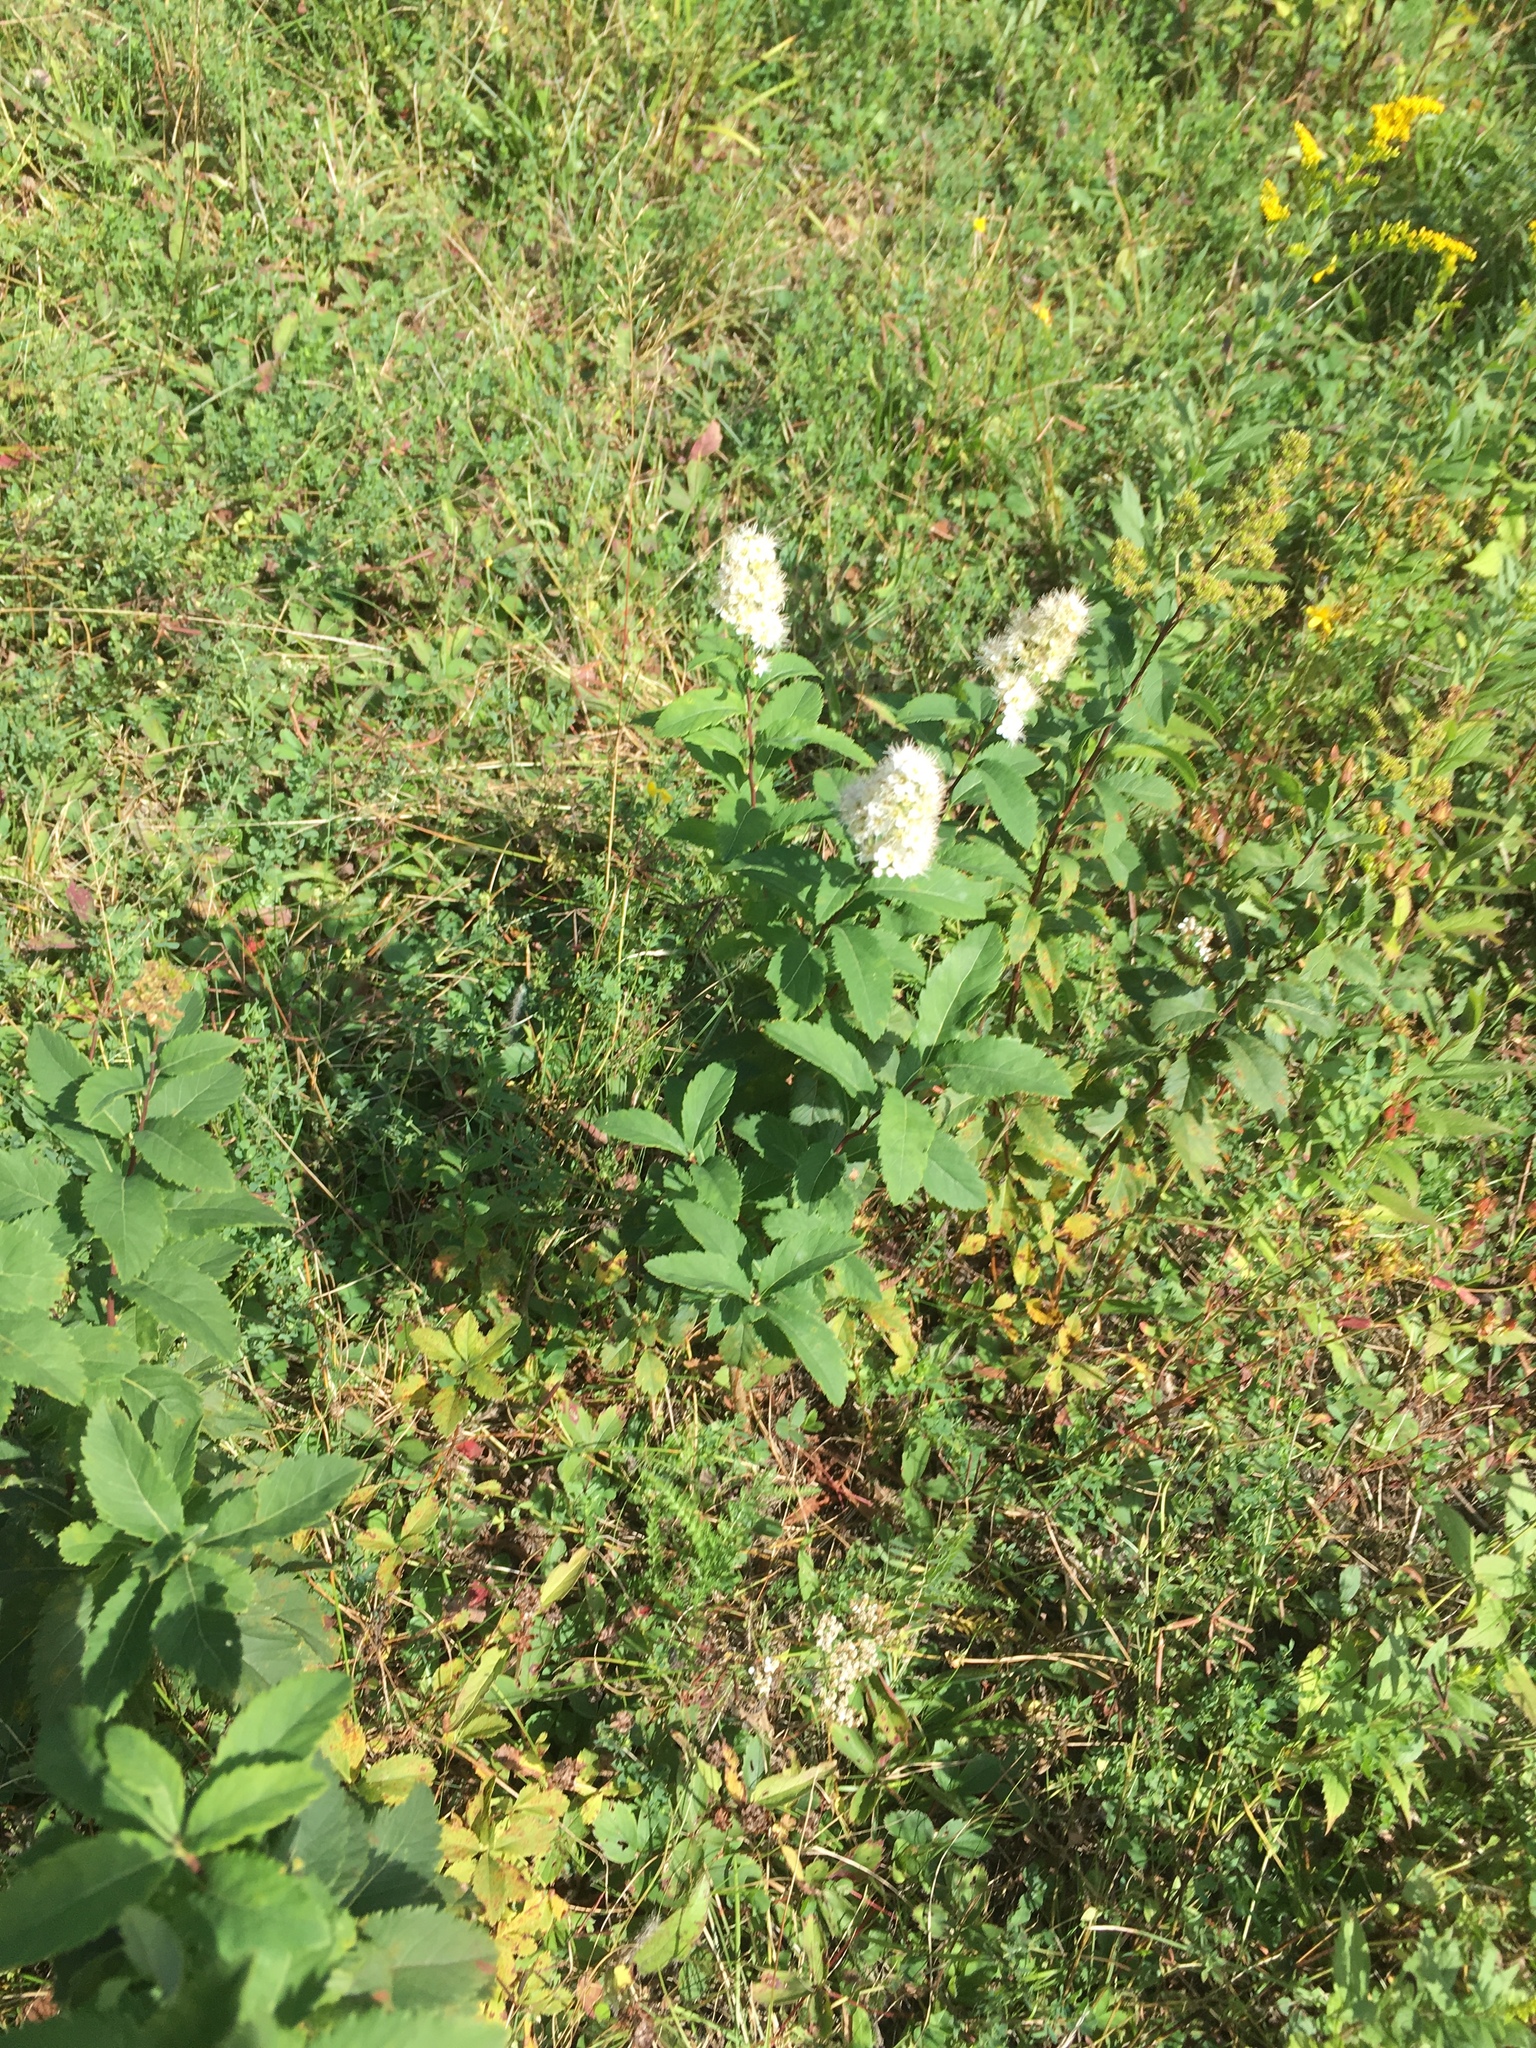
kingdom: Plantae
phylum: Tracheophyta
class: Magnoliopsida
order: Rosales
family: Rosaceae
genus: Spiraea
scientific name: Spiraea alba
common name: Pale bridewort
